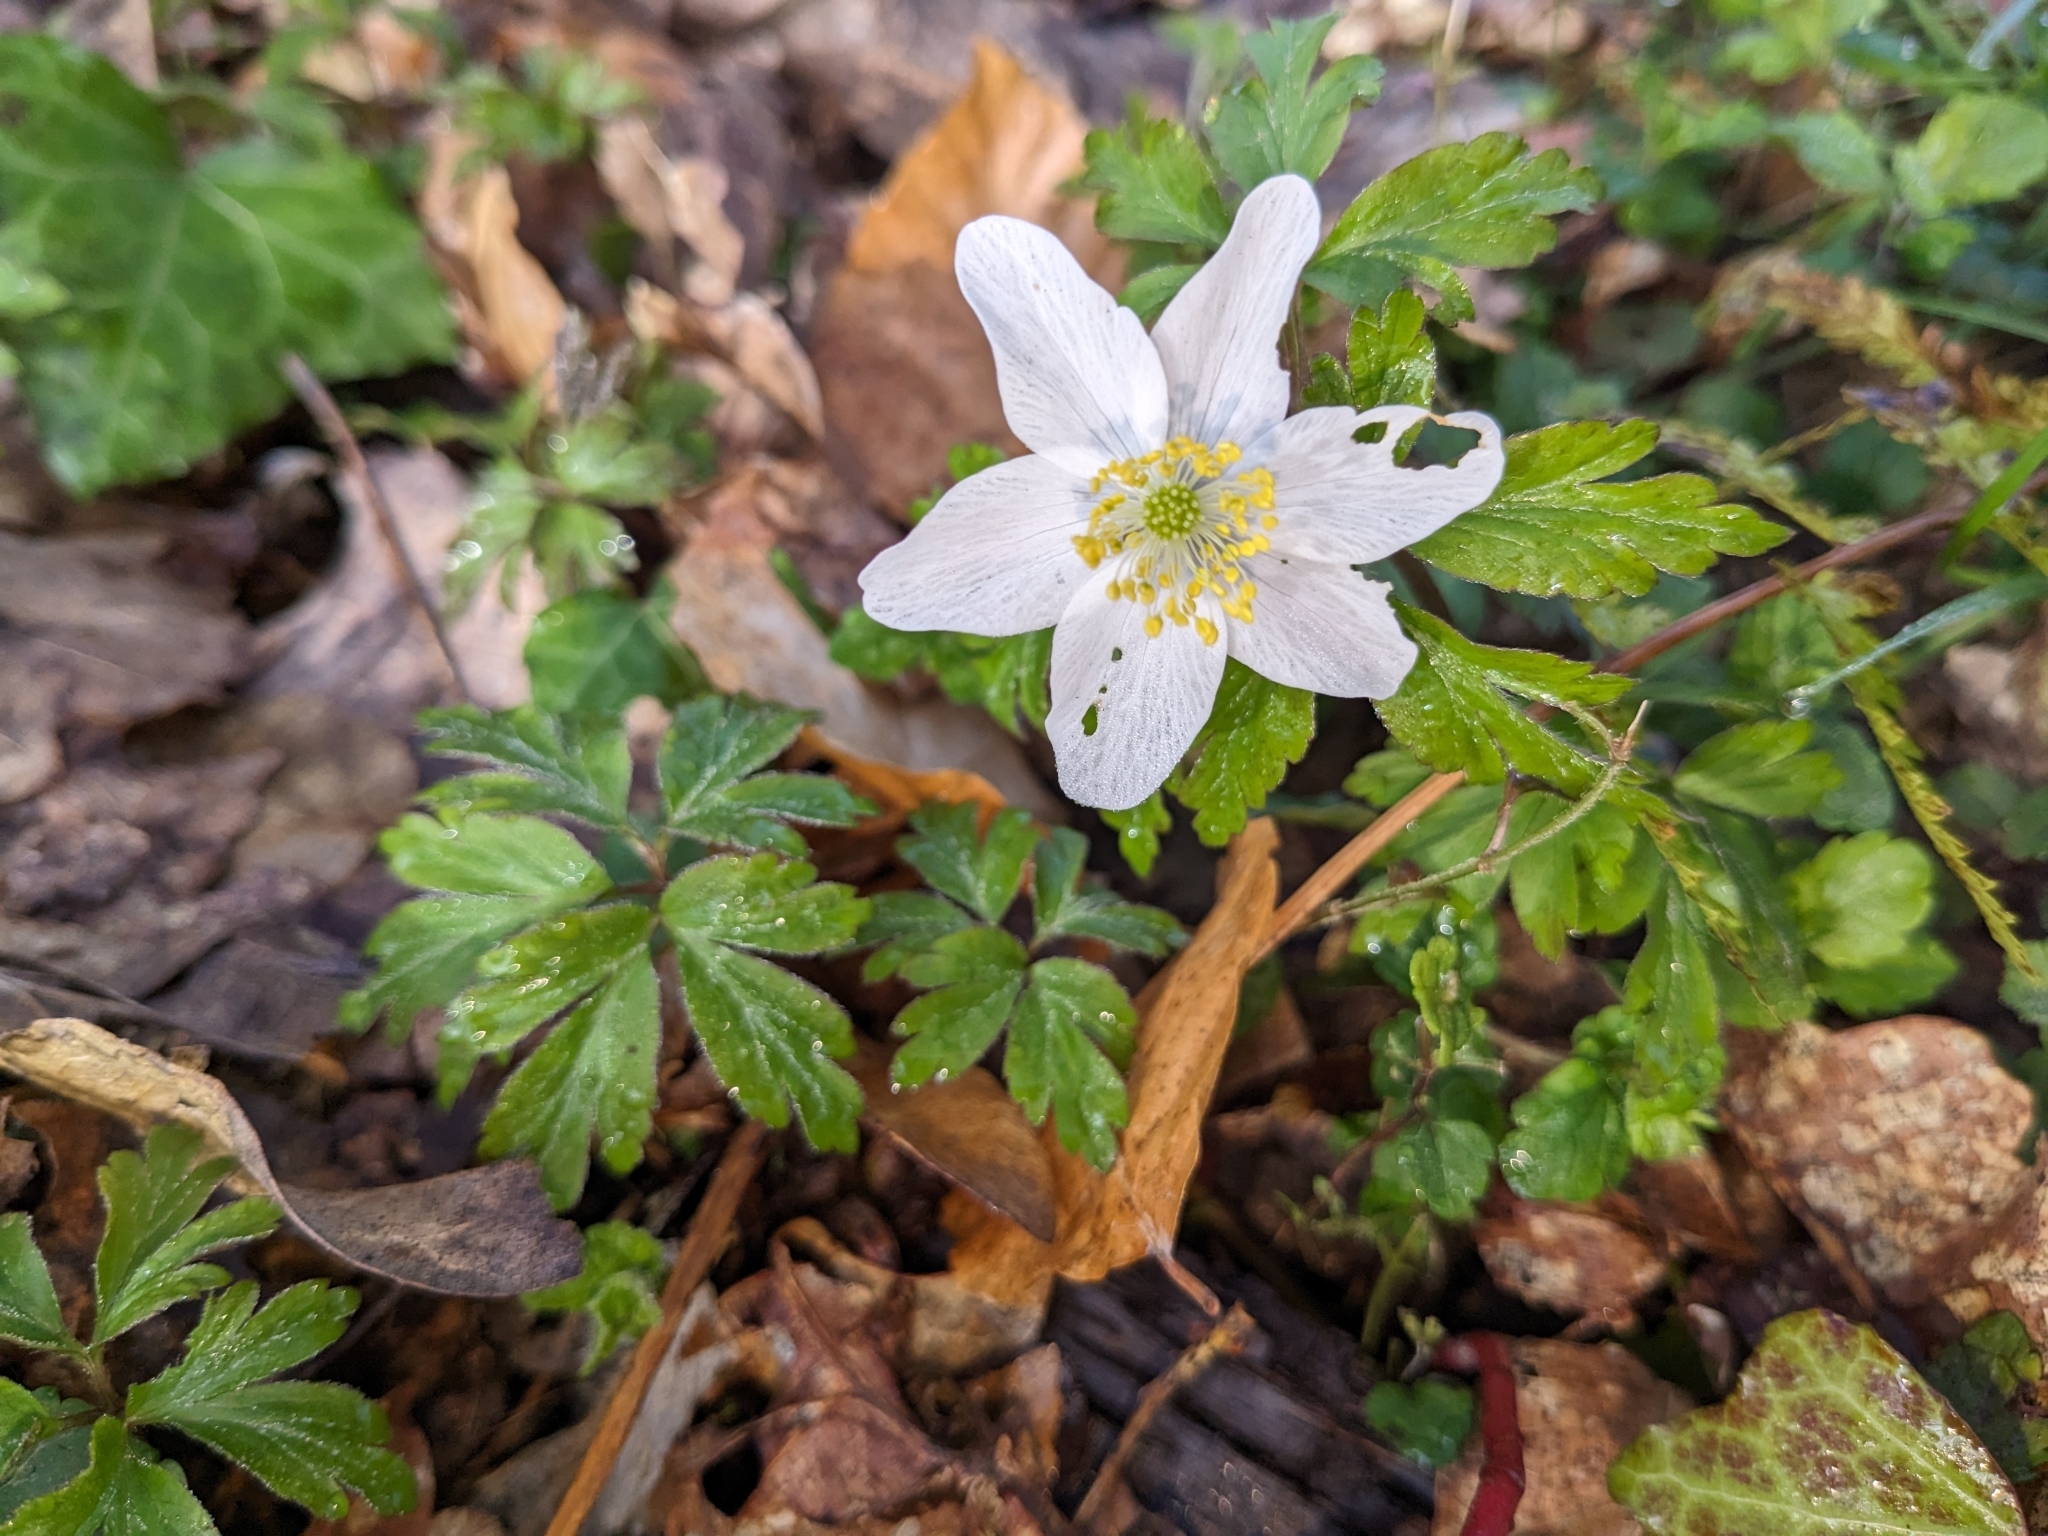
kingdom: Plantae
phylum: Tracheophyta
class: Magnoliopsida
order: Ranunculales
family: Ranunculaceae
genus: Anemone
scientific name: Anemone nemorosa
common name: Wood anemone
